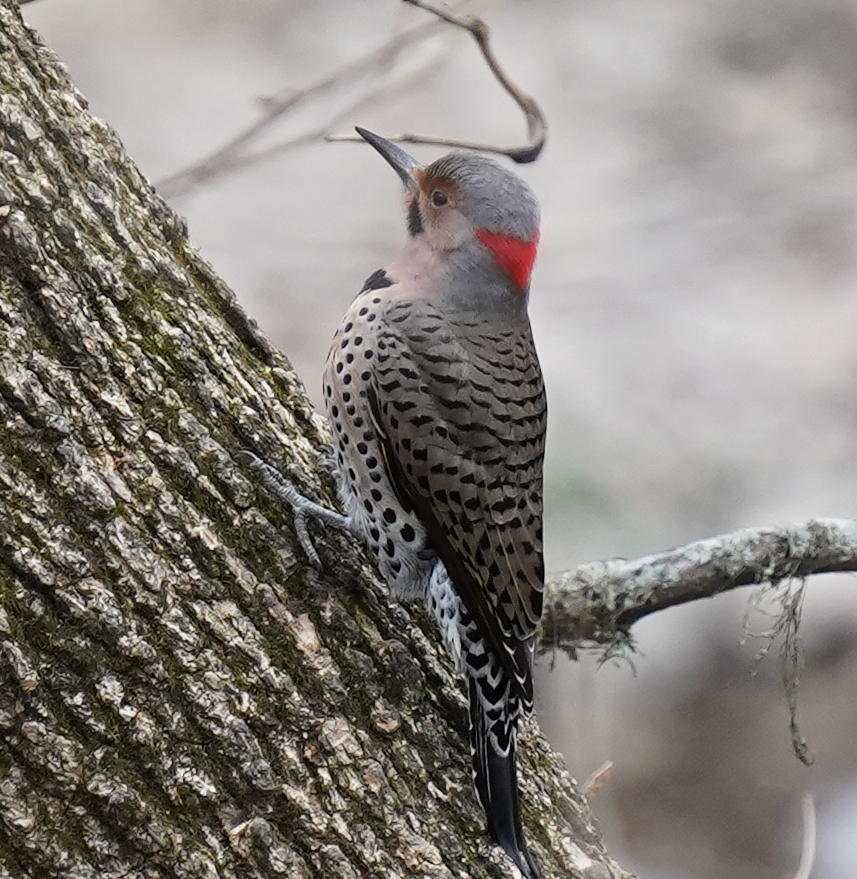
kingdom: Animalia
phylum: Chordata
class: Aves
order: Piciformes
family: Picidae
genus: Colaptes
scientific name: Colaptes auratus
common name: Northern flicker
